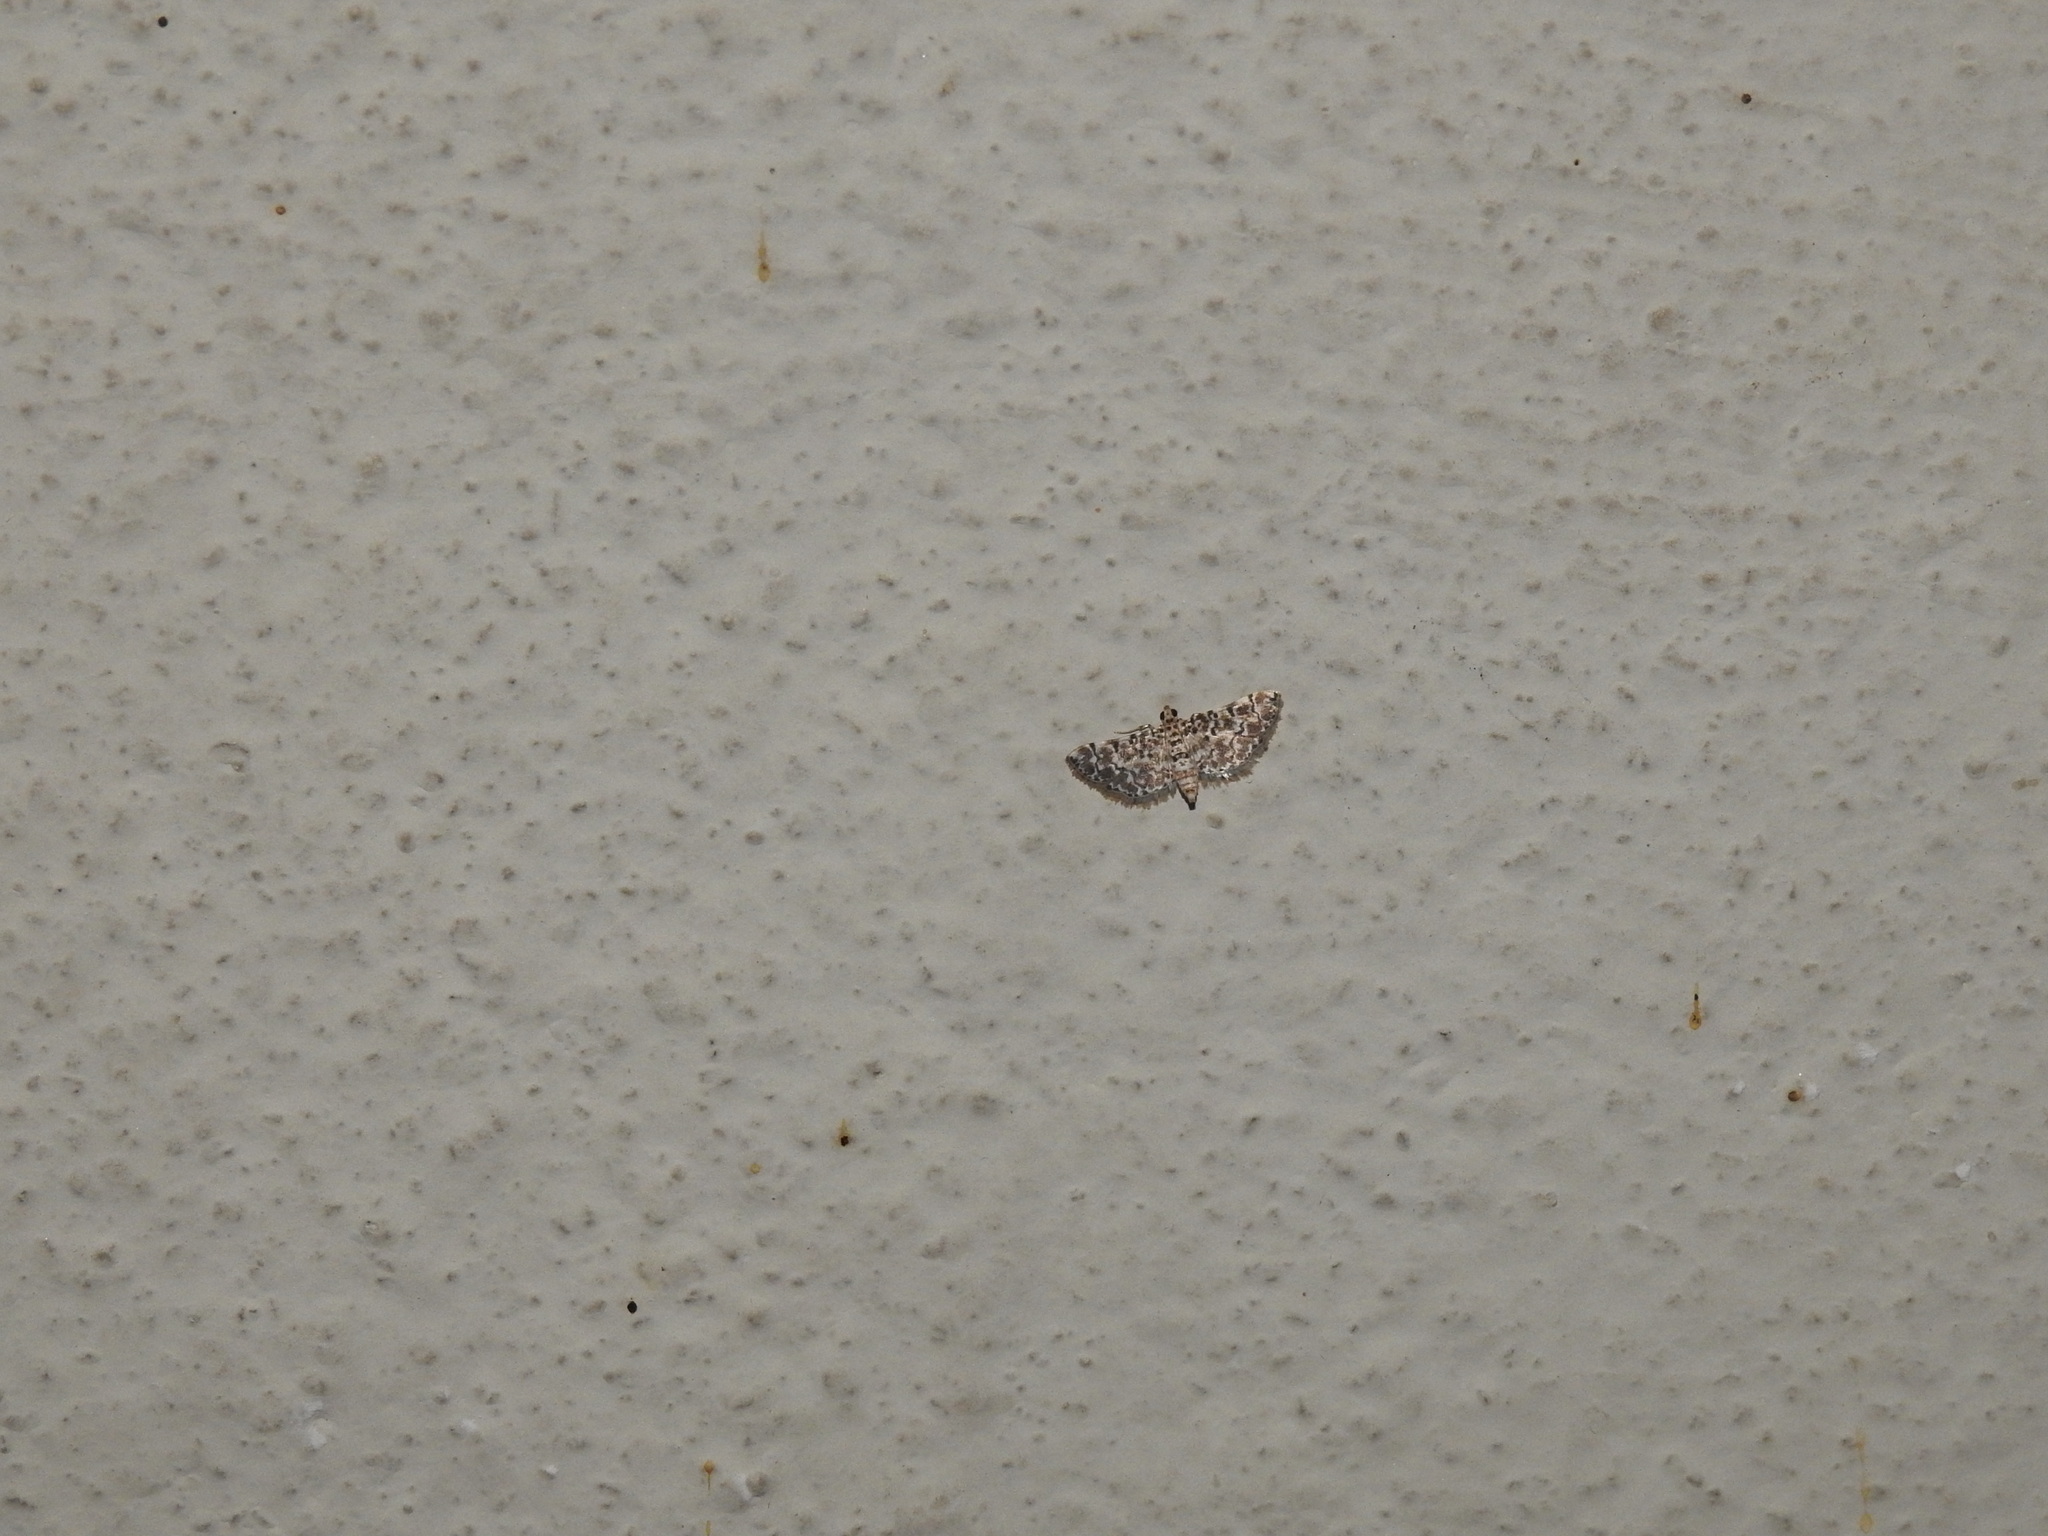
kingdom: Animalia
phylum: Arthropoda
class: Insecta
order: Lepidoptera
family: Crambidae
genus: Metoeca
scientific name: Metoeca foedalis
